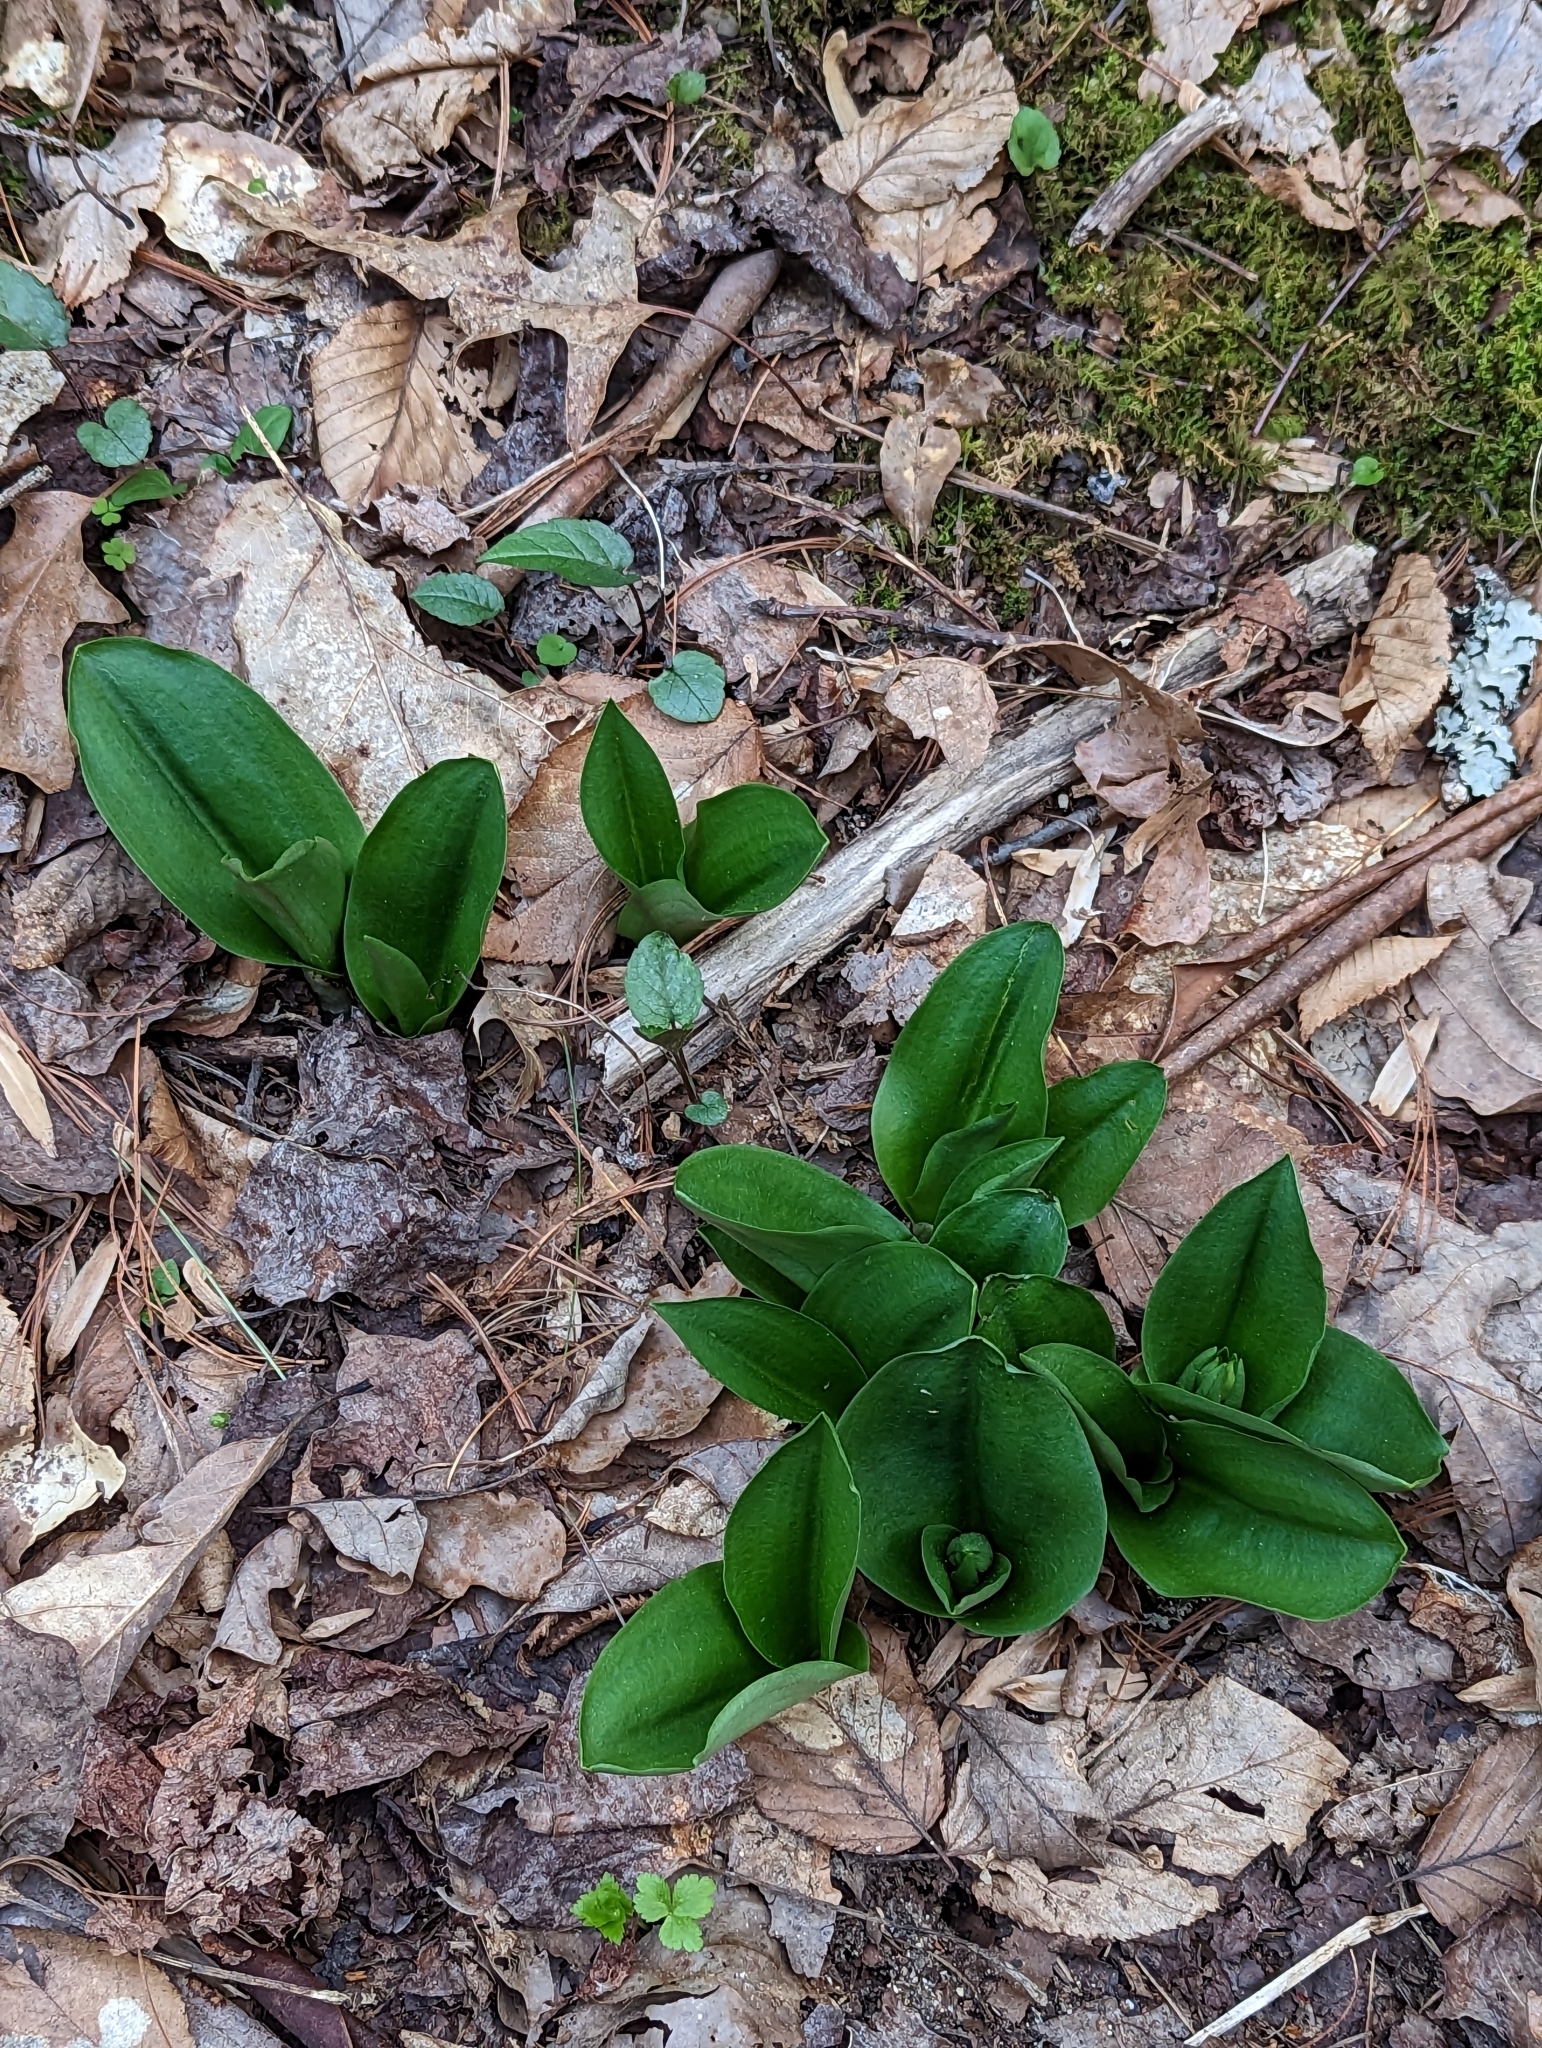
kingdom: Plantae
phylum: Tracheophyta
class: Liliopsida
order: Asparagales
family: Orchidaceae
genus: Galearis
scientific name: Galearis spectabilis
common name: Purple-hooded orchis
